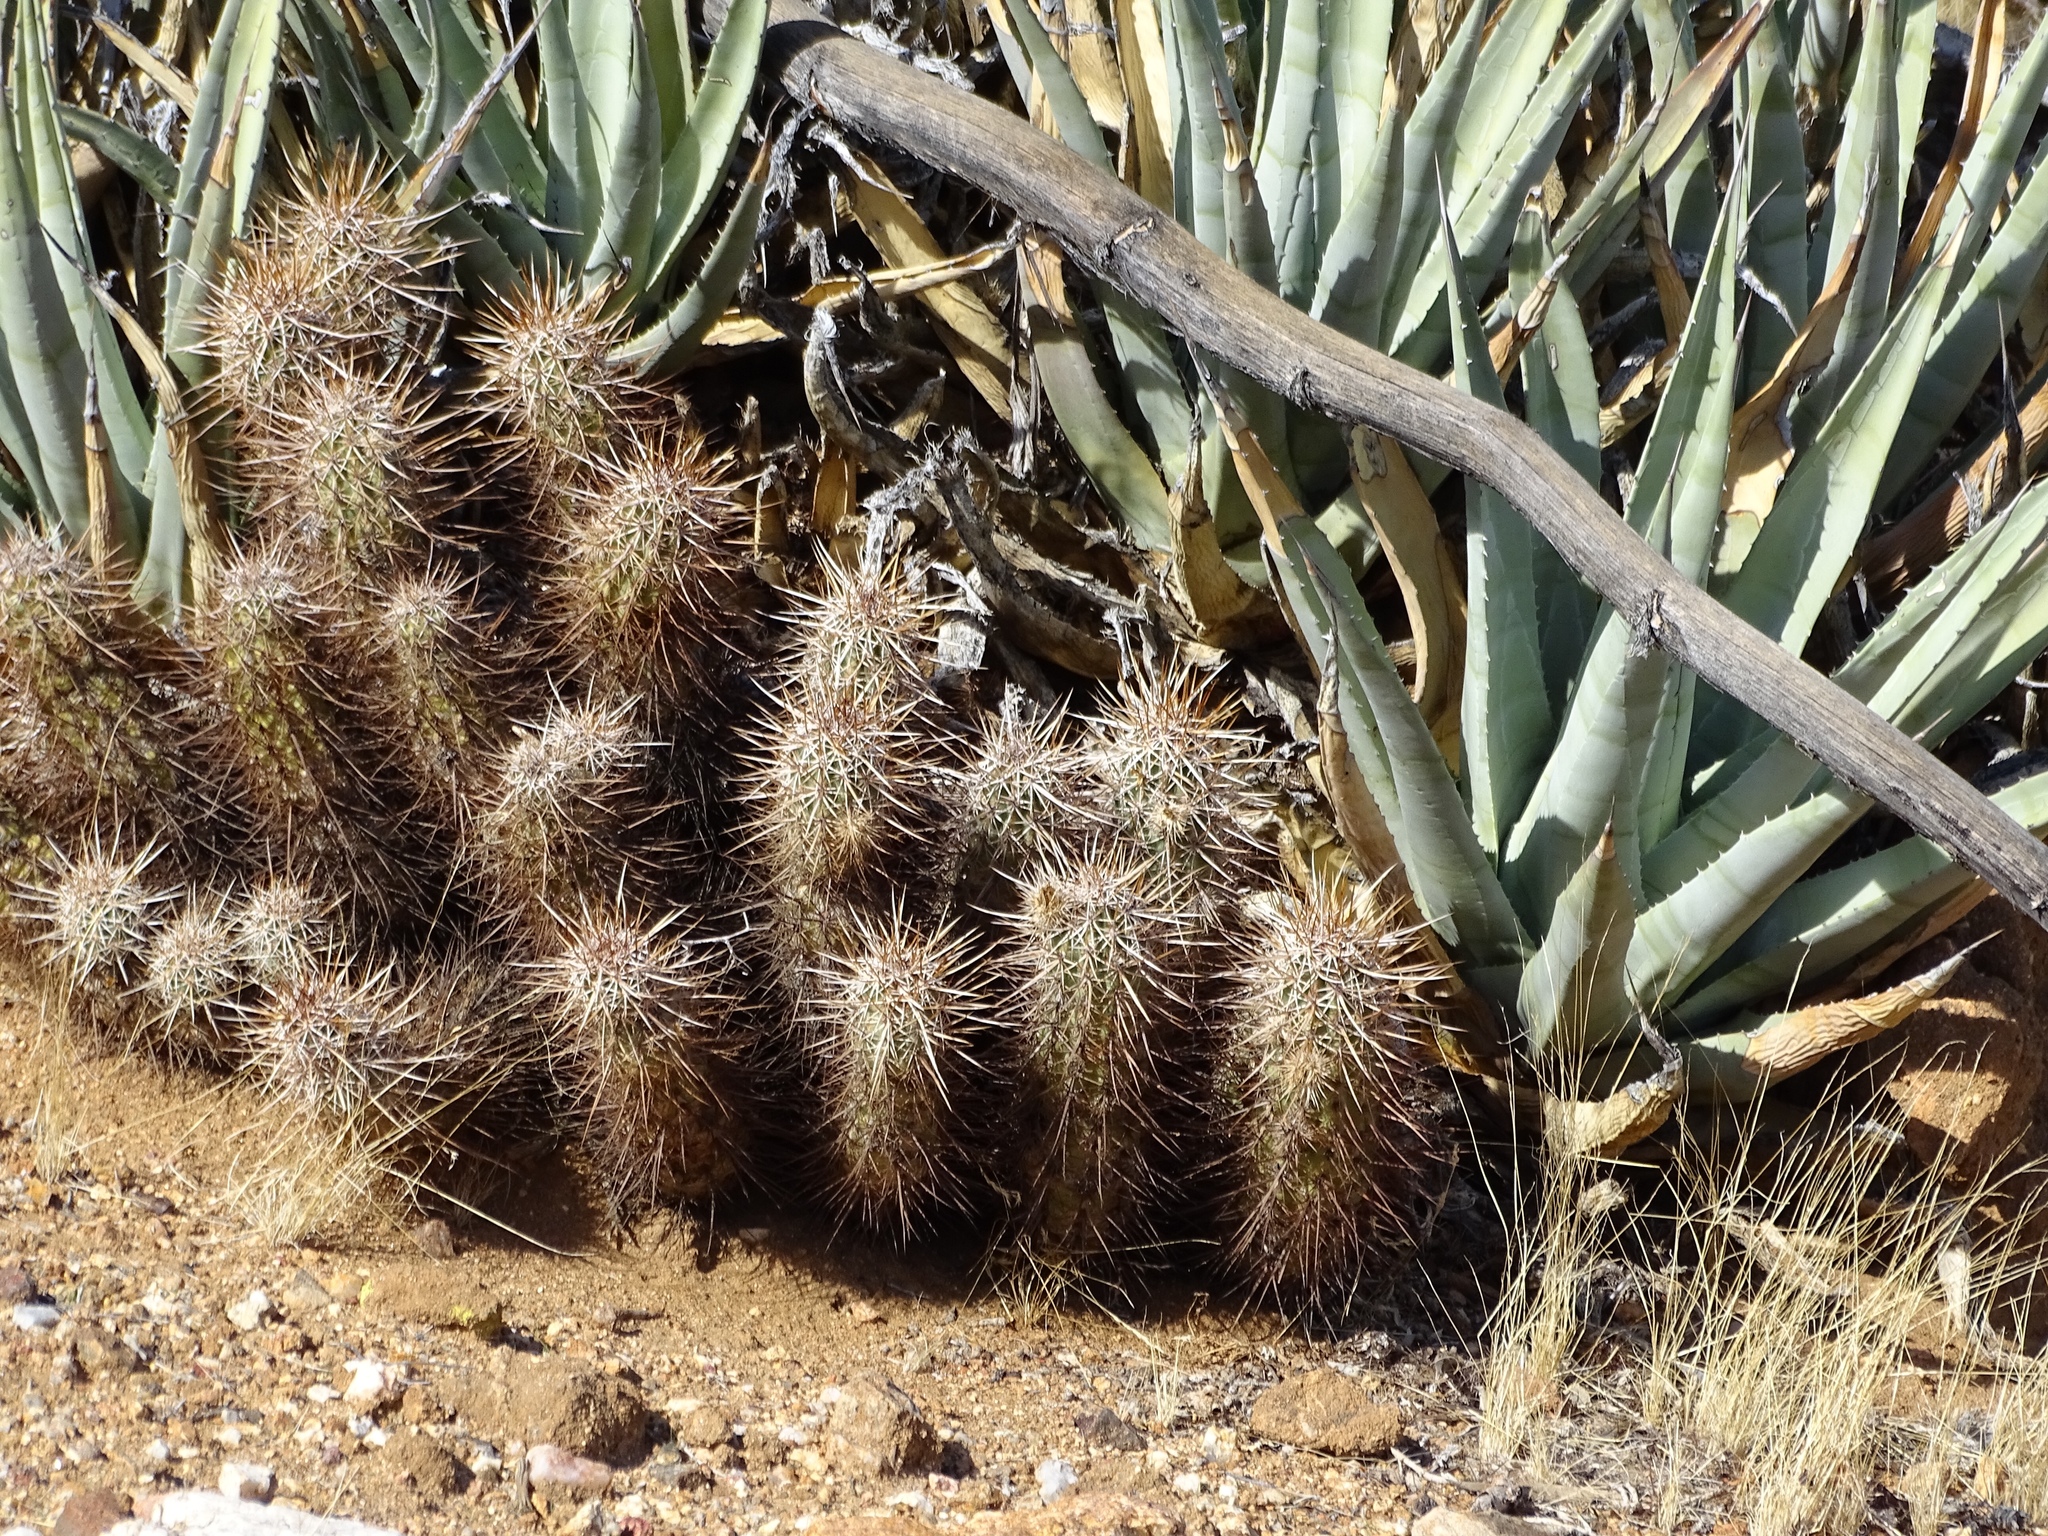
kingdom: Plantae
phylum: Tracheophyta
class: Magnoliopsida
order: Caryophyllales
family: Cactaceae
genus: Echinocereus
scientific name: Echinocereus engelmannii
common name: Engelmann's hedgehog cactus
